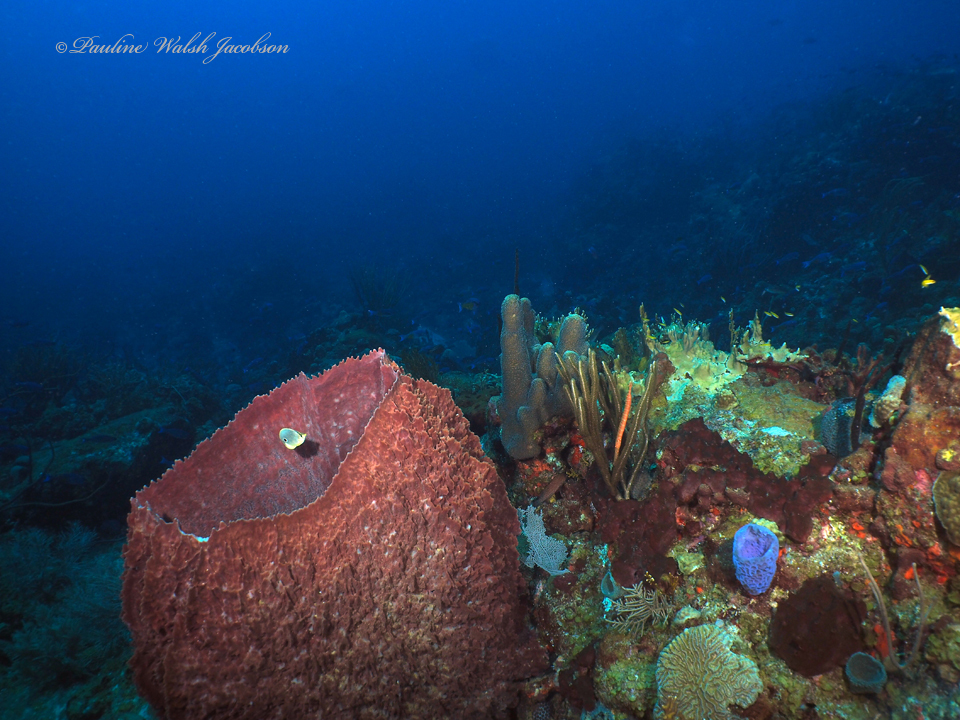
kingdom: Animalia
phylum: Chordata
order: Perciformes
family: Chaetodontidae
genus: Chaetodon
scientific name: Chaetodon capistratus
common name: Kete
